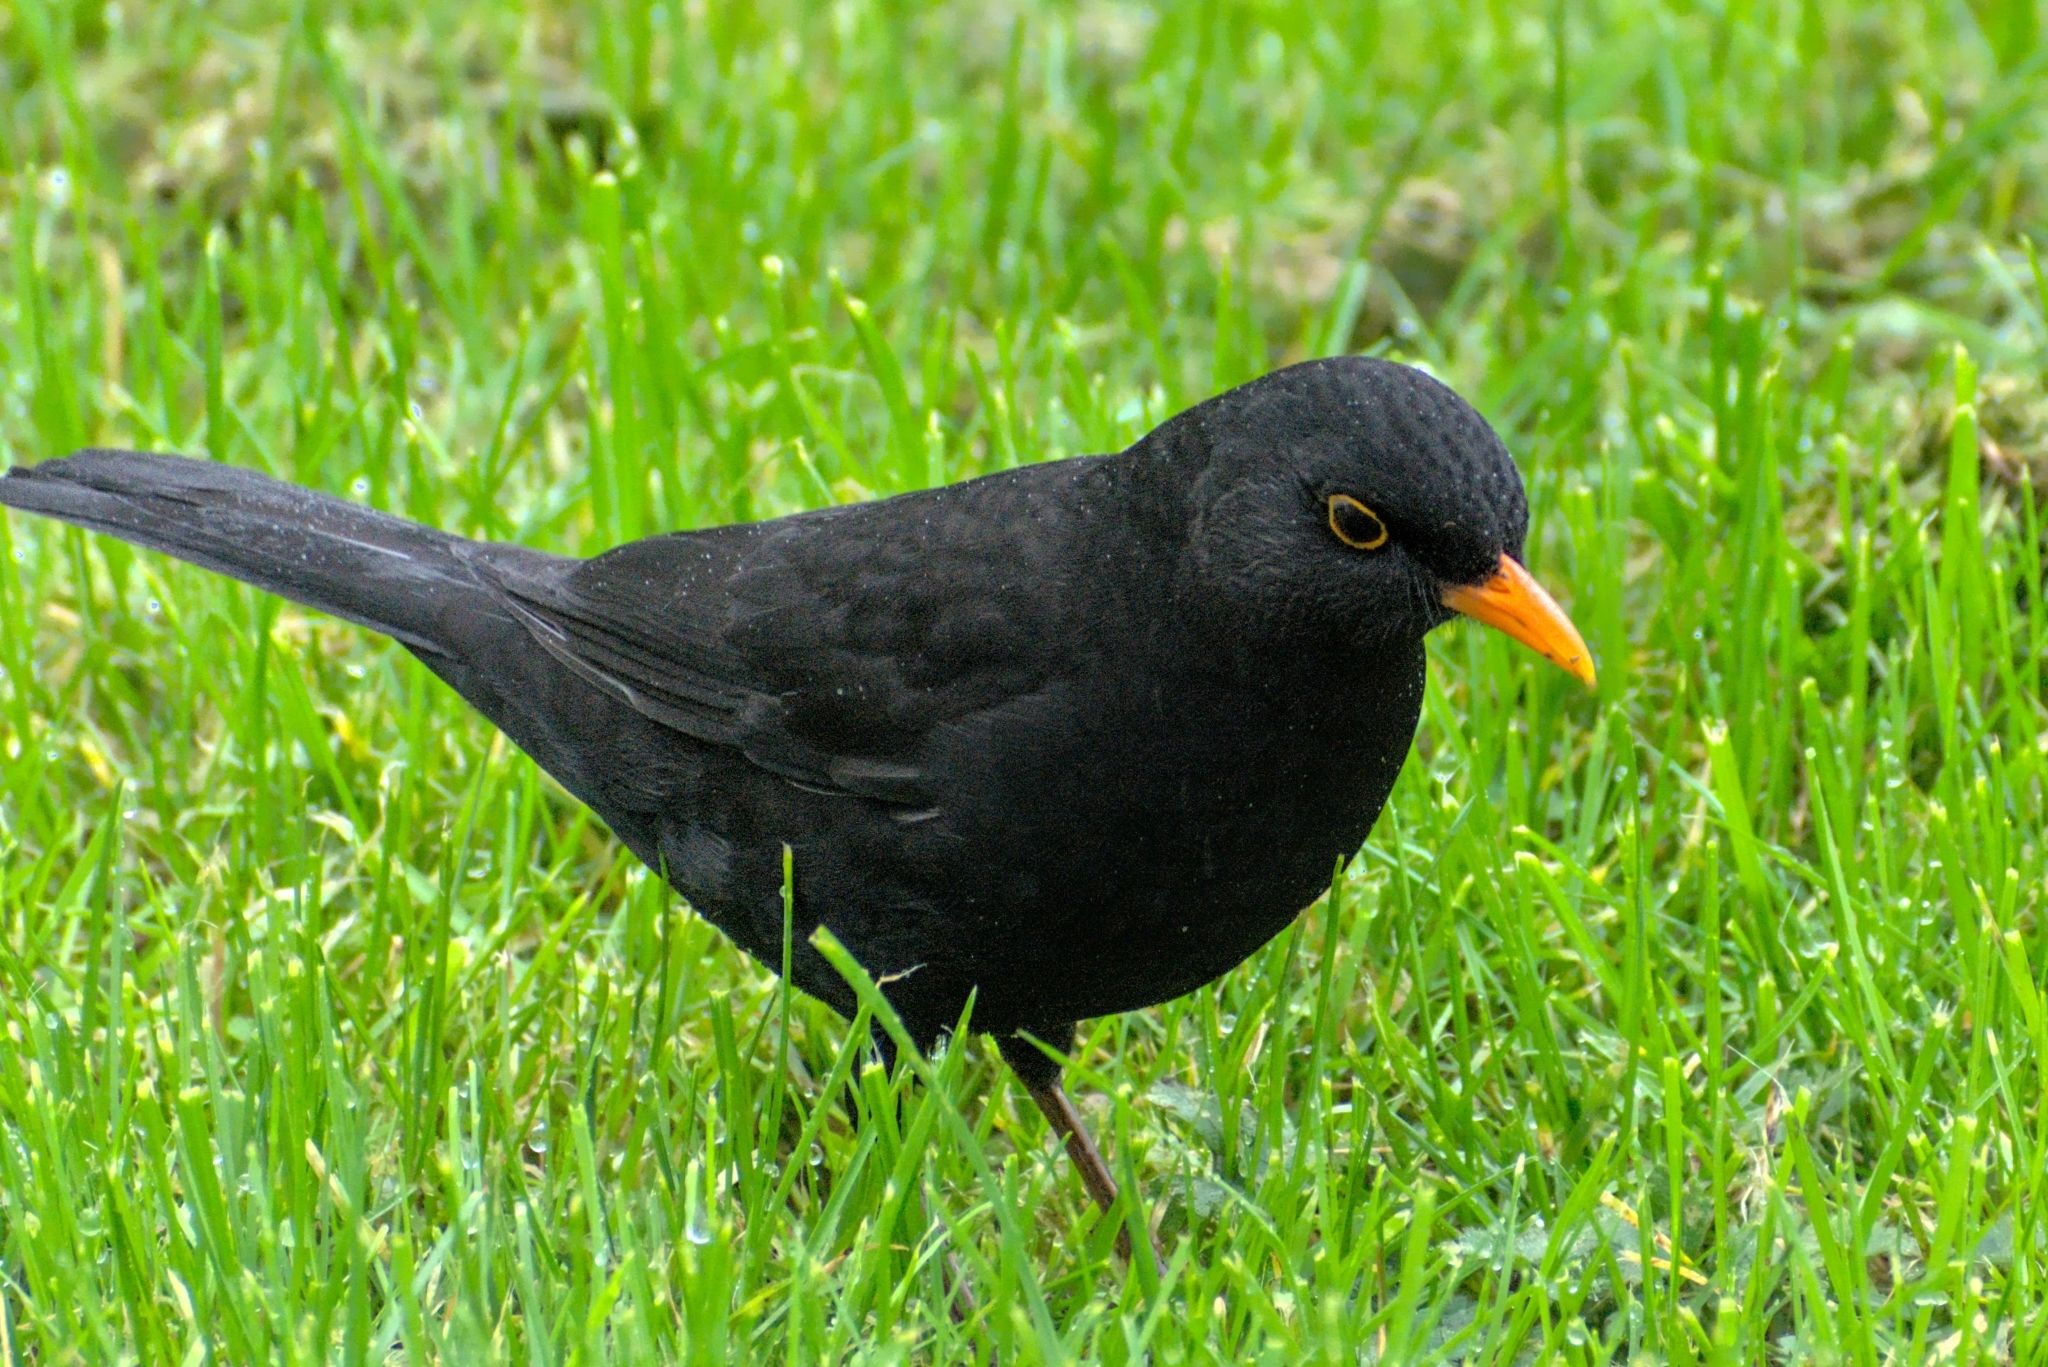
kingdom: Animalia
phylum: Chordata
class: Aves
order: Passeriformes
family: Turdidae
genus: Turdus
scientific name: Turdus merula
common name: Common blackbird
